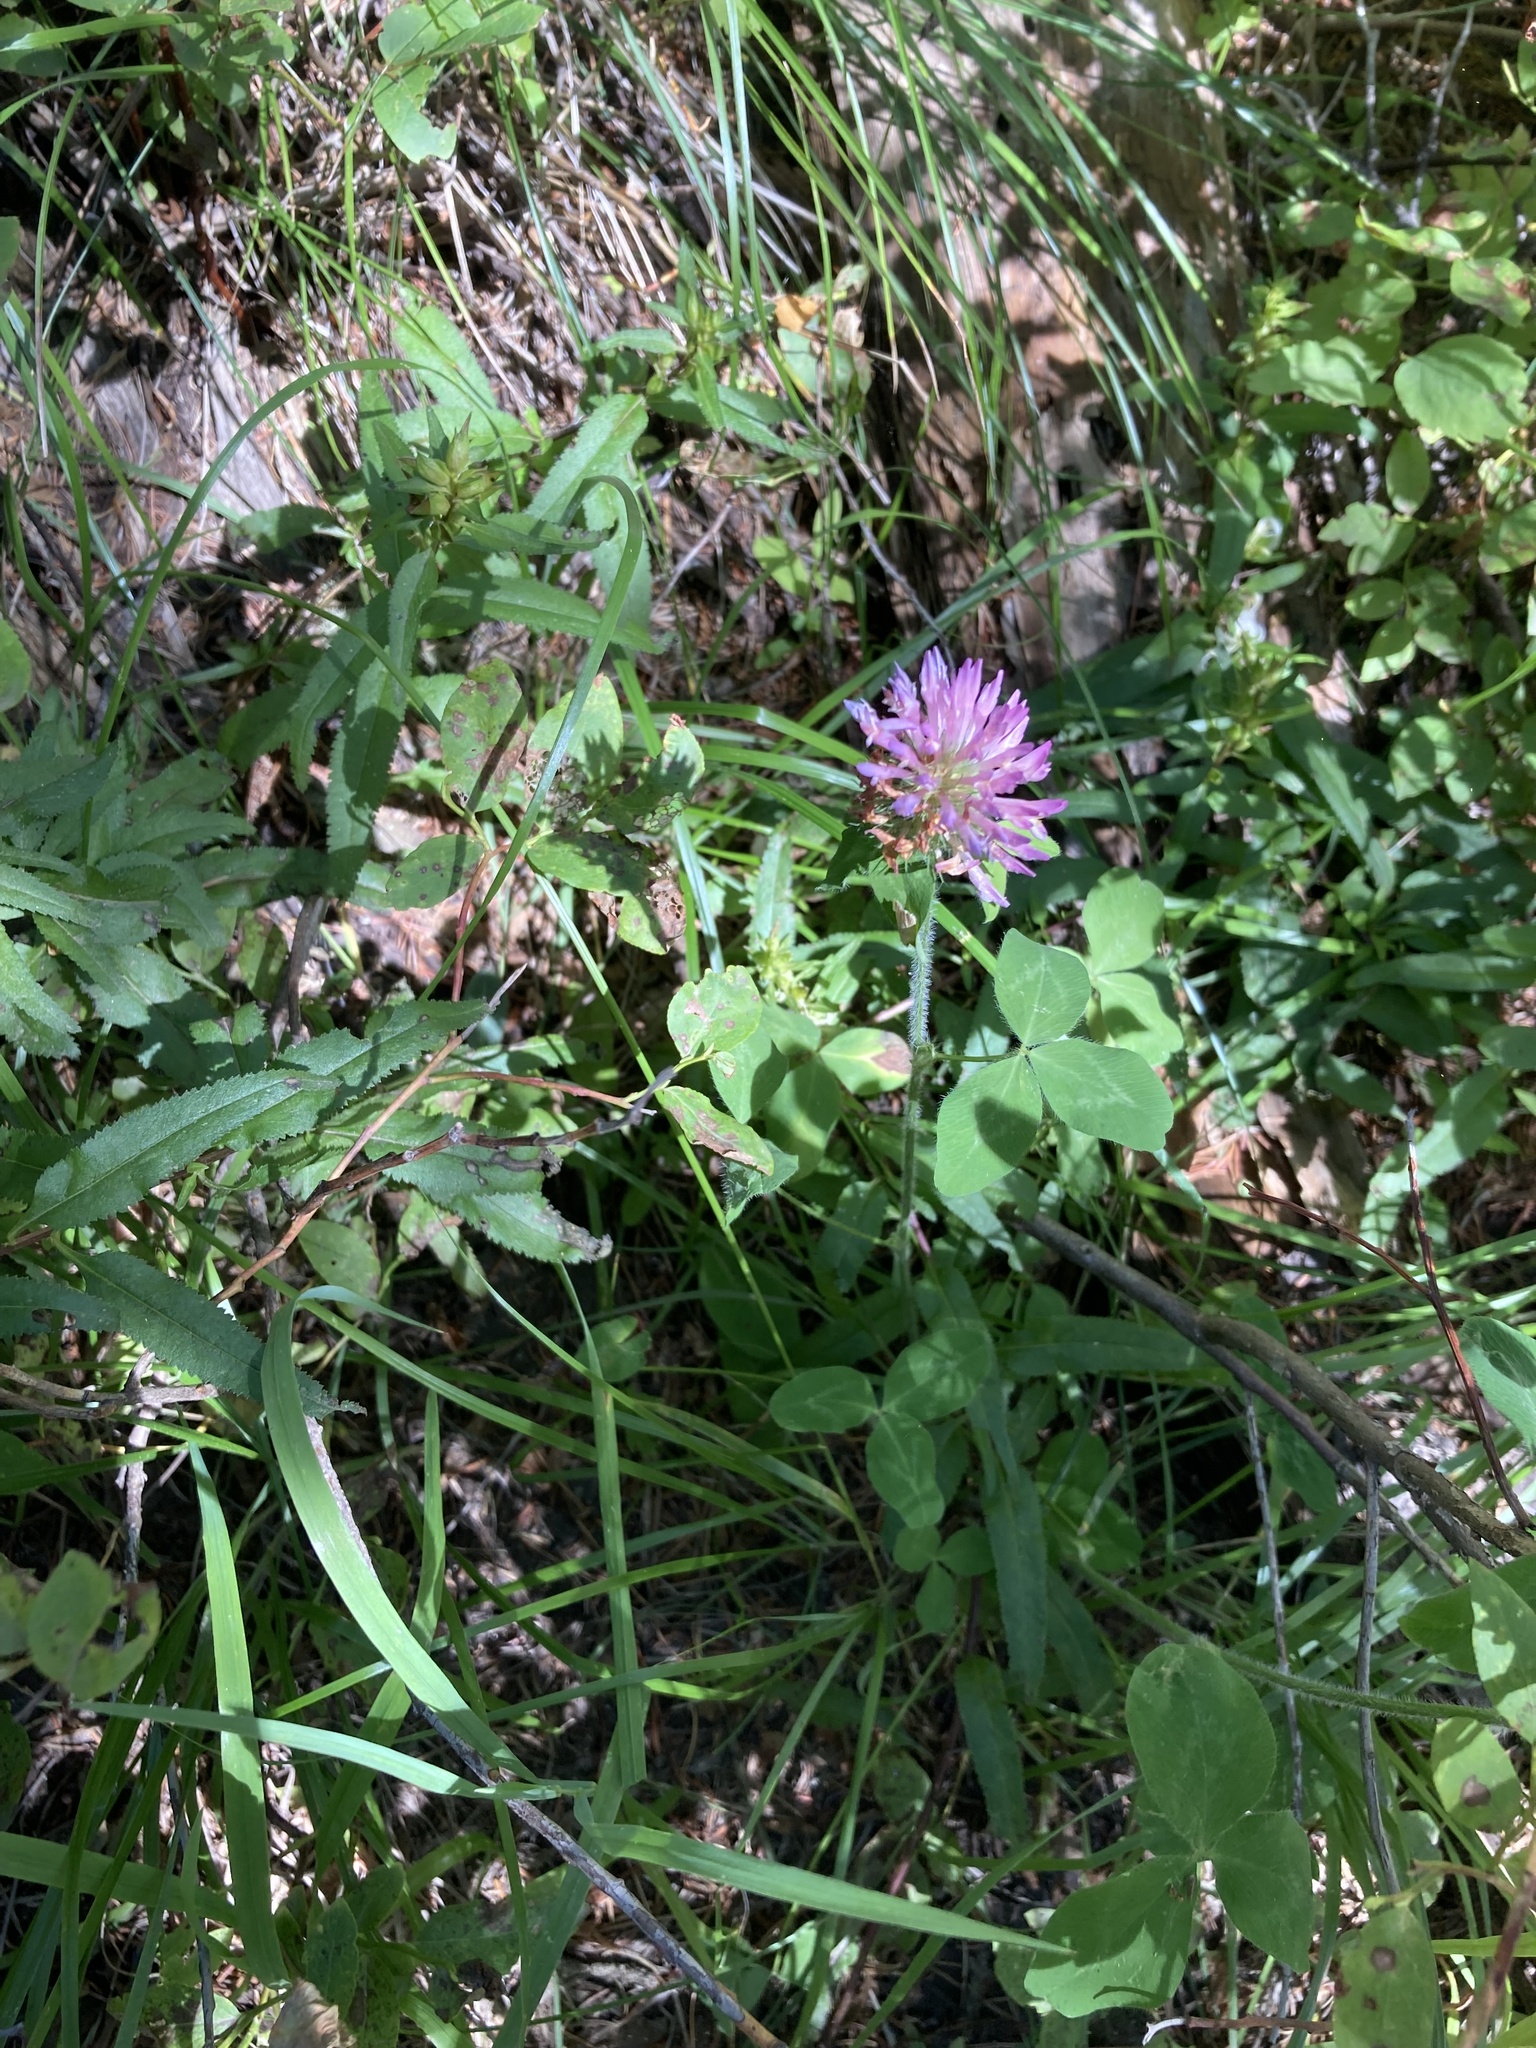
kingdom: Plantae
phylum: Tracheophyta
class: Magnoliopsida
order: Fabales
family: Fabaceae
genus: Trifolium
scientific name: Trifolium pratense
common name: Red clover
